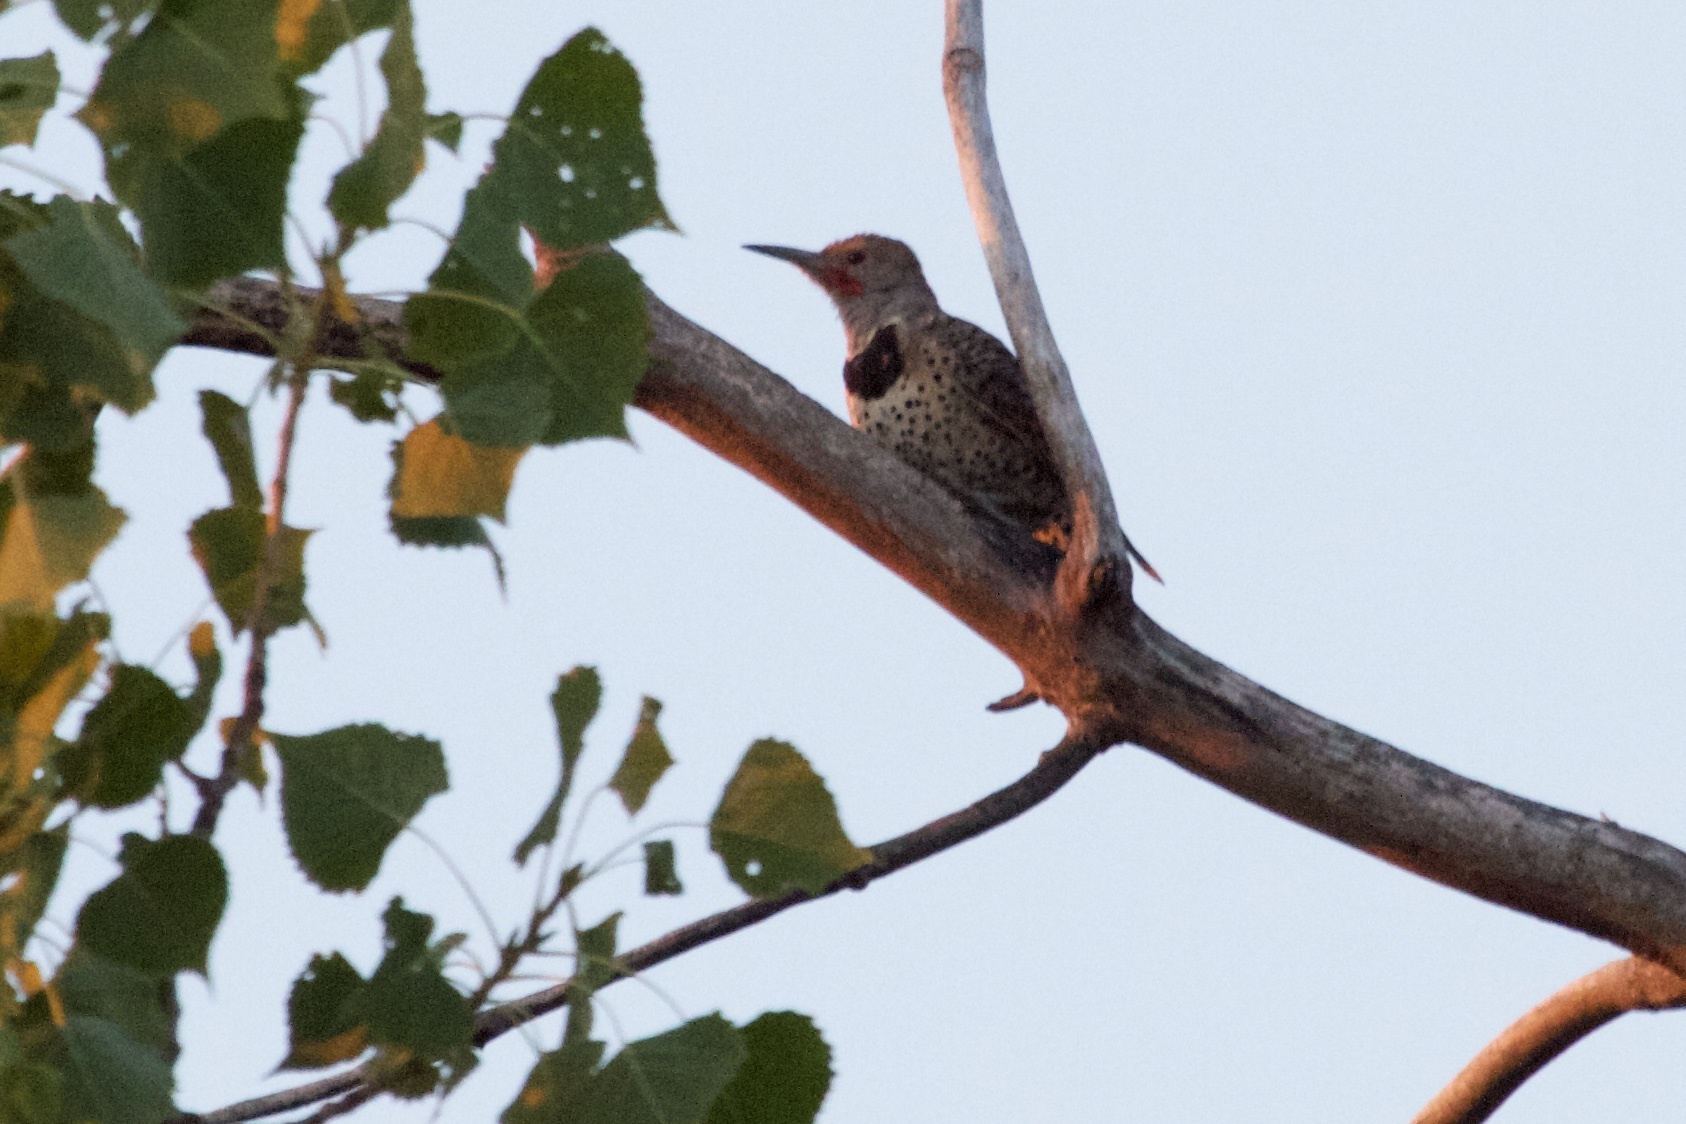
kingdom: Animalia
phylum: Chordata
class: Aves
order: Piciformes
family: Picidae
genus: Colaptes
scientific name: Colaptes auratus
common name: Northern flicker
